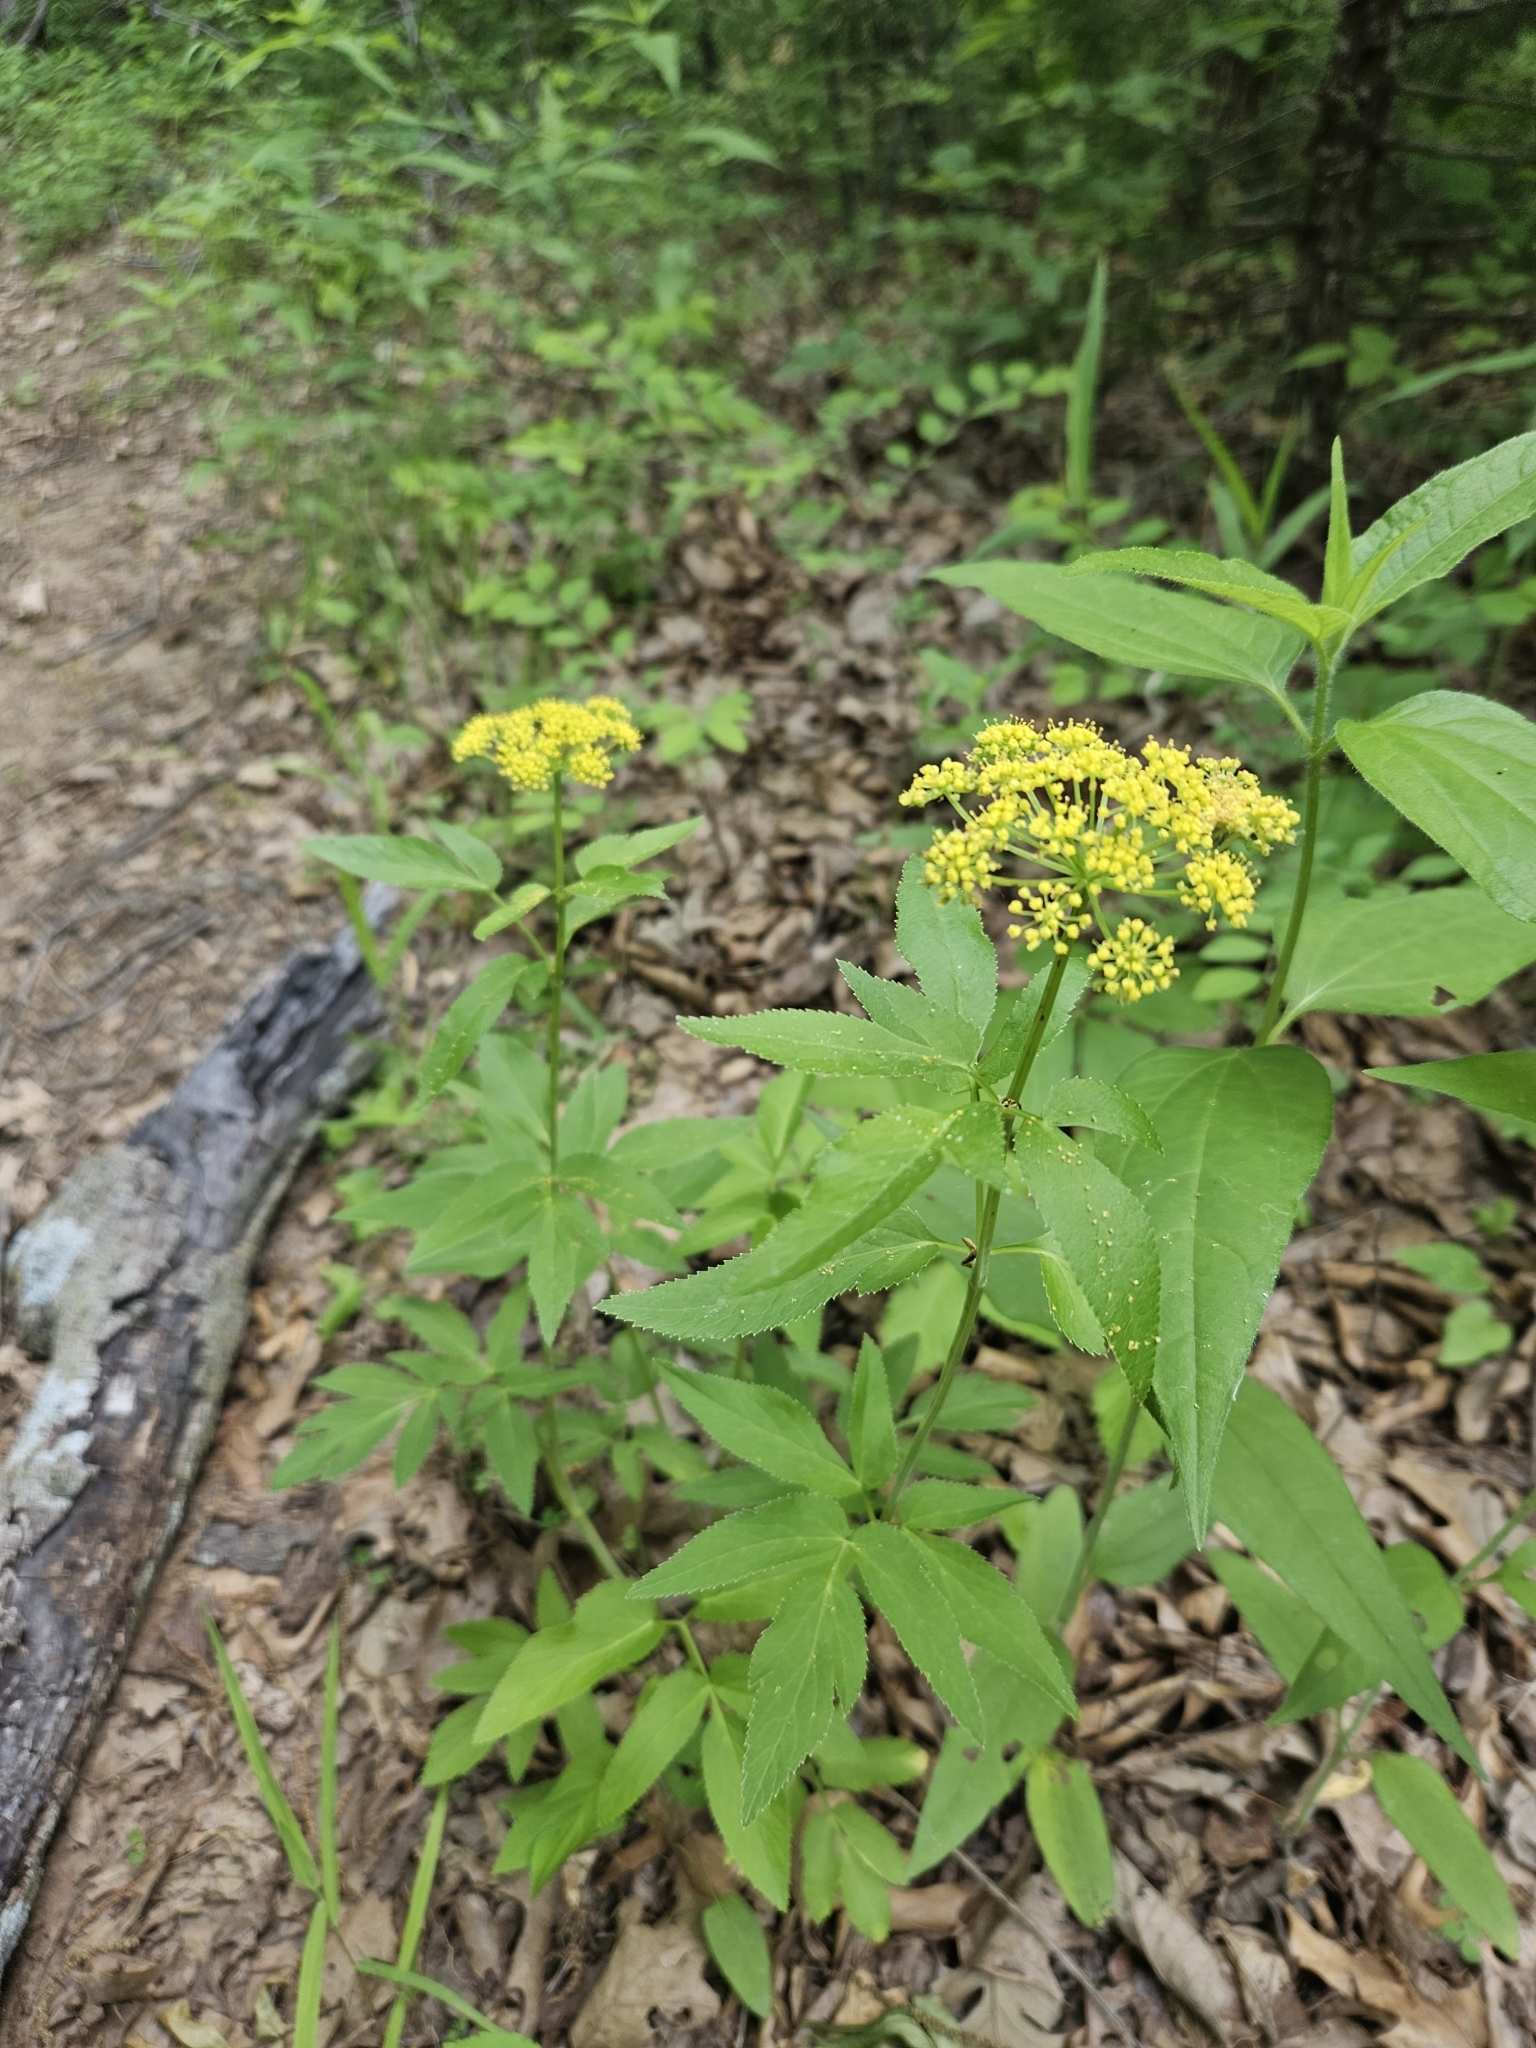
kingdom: Plantae
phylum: Tracheophyta
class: Magnoliopsida
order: Apiales
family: Apiaceae
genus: Zizia
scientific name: Zizia aurea
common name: Golden alexanders
